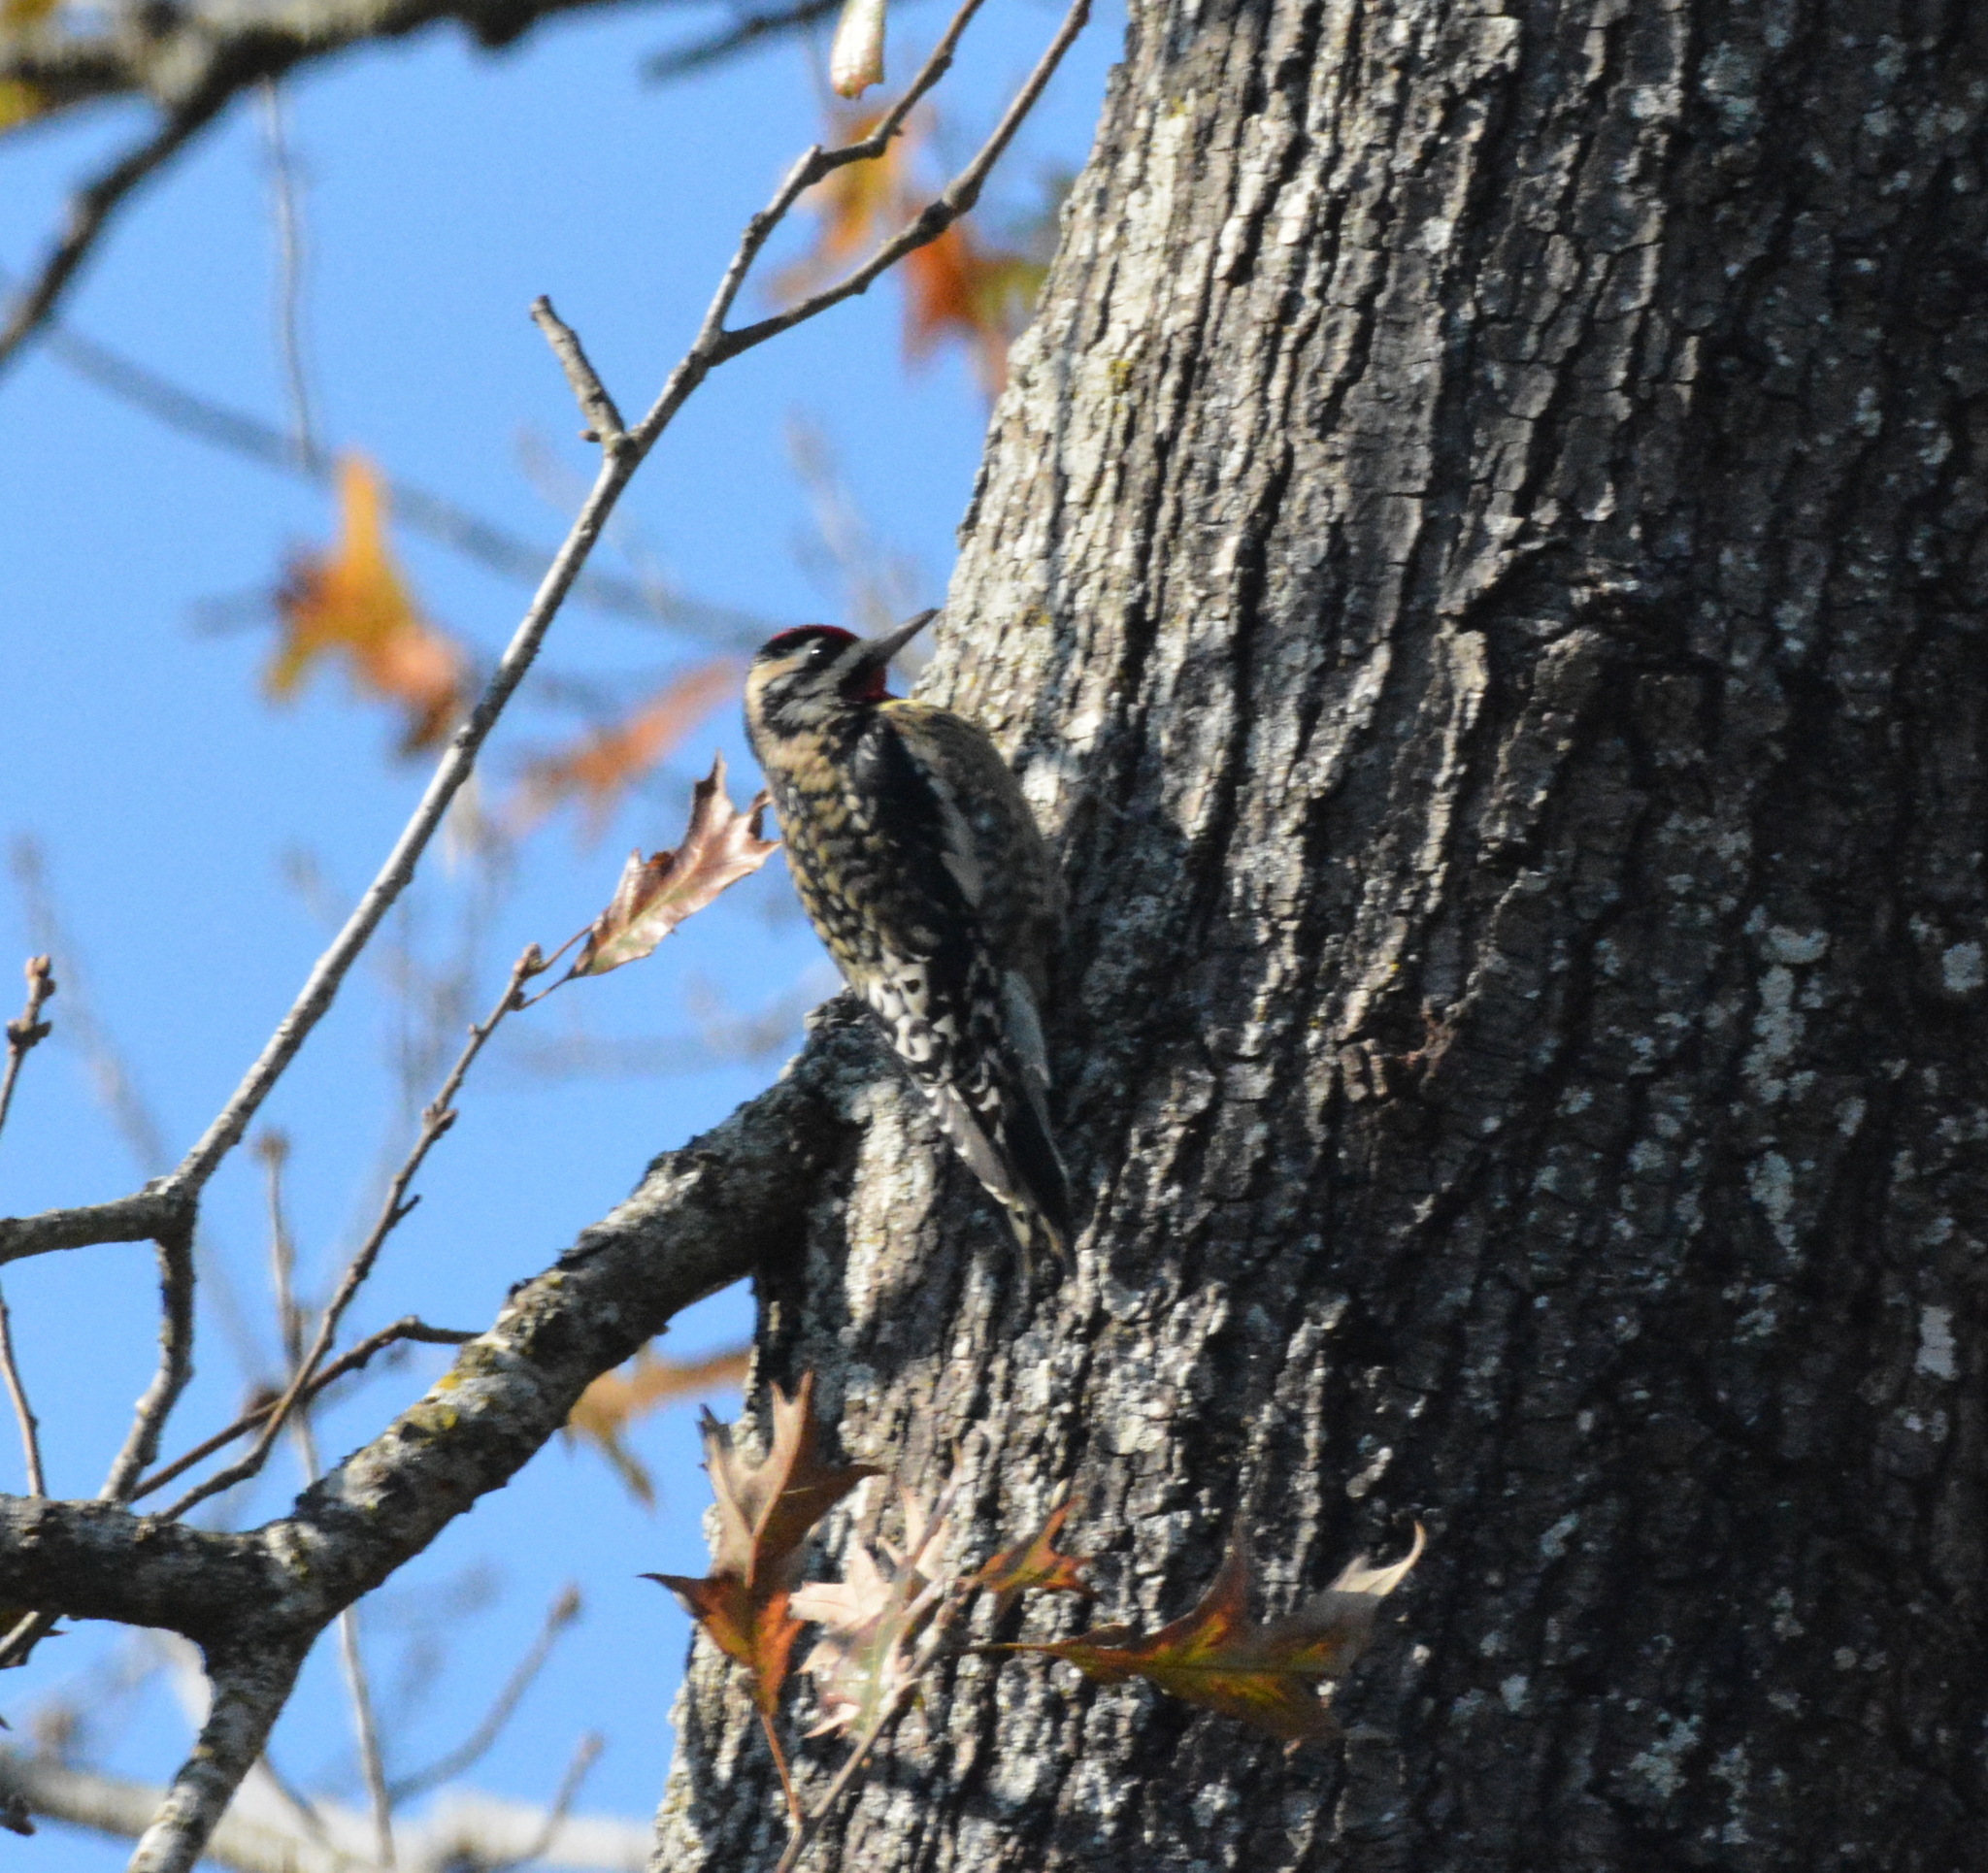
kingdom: Animalia
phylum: Chordata
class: Aves
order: Piciformes
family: Picidae
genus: Sphyrapicus
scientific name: Sphyrapicus varius
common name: Yellow-bellied sapsucker
